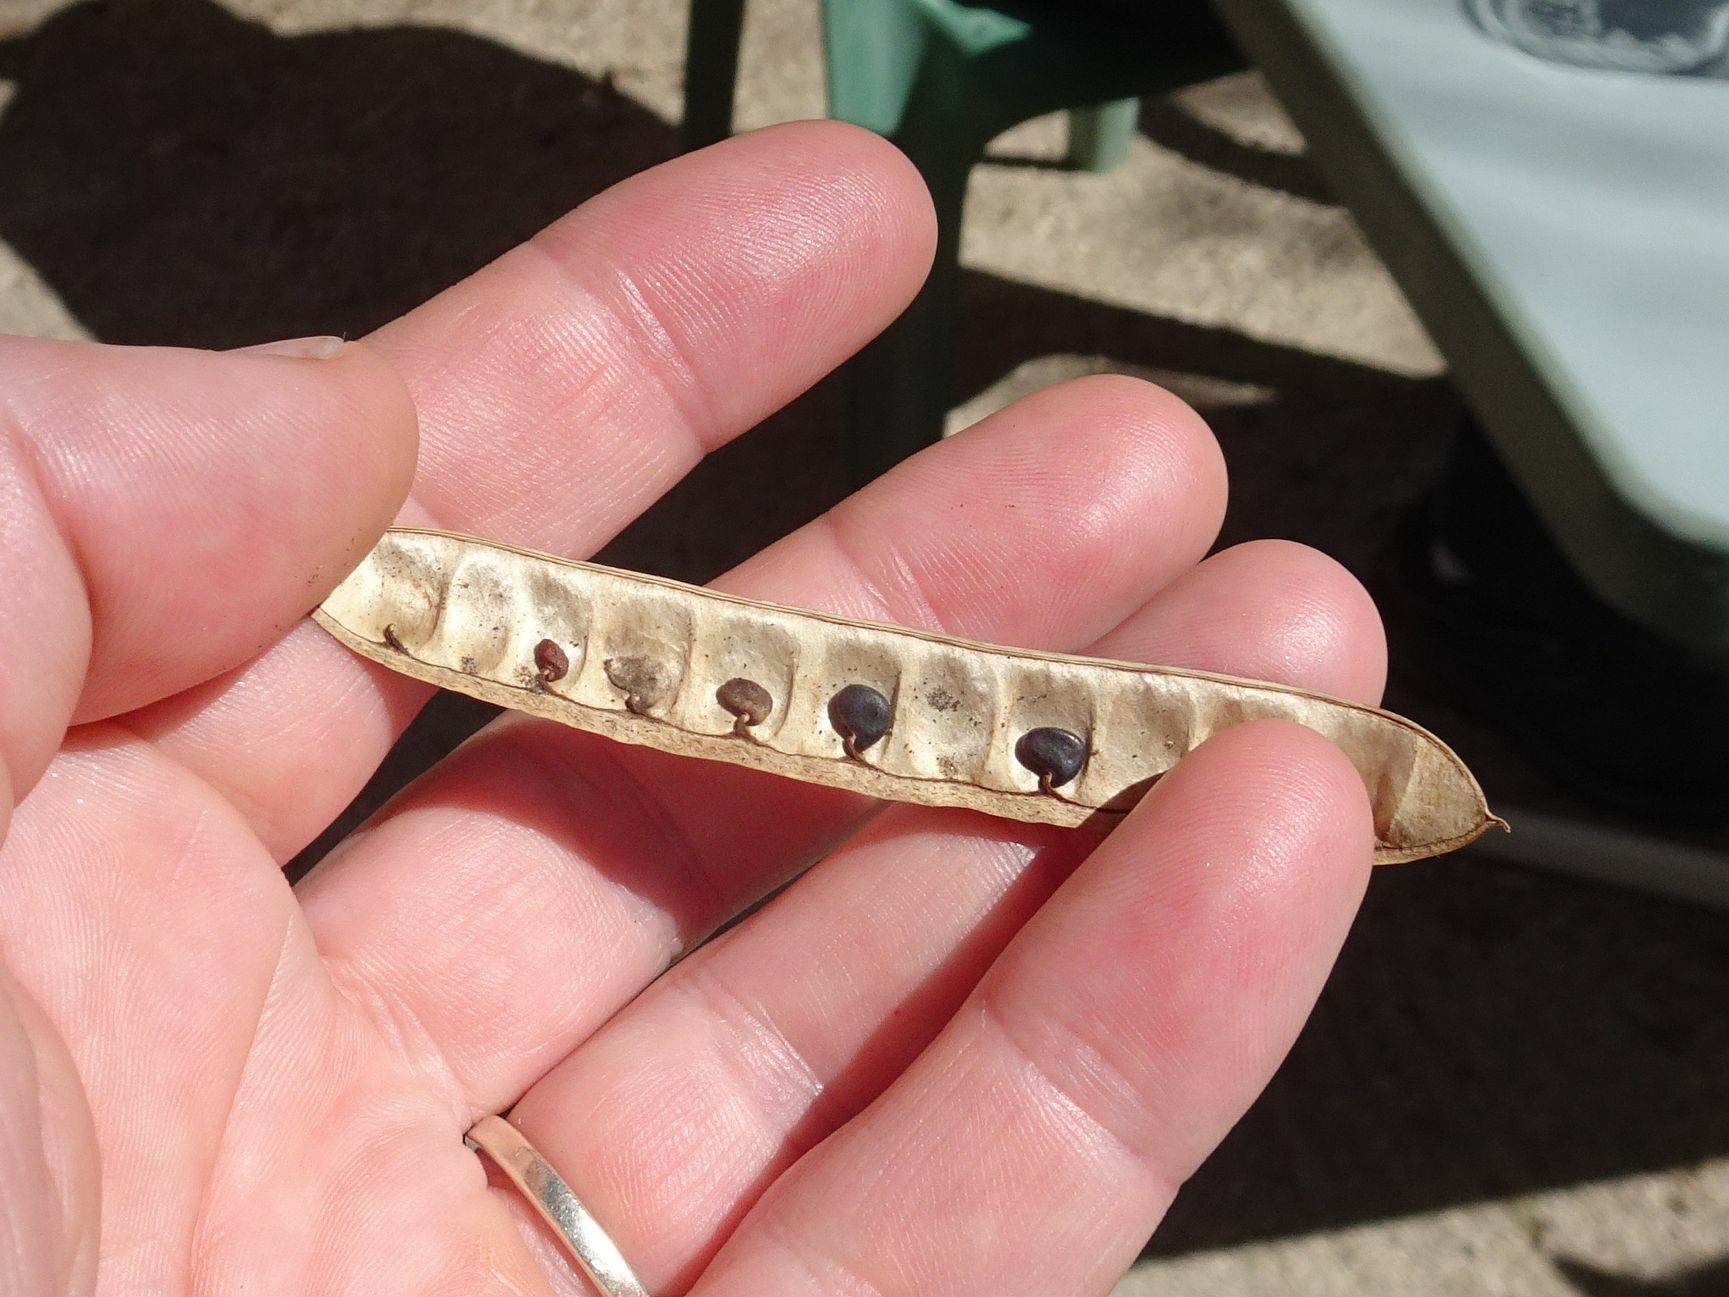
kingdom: Plantae
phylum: Tracheophyta
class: Magnoliopsida
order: Fabales
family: Fabaceae
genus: Robinia
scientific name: Robinia pseudoacacia
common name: Black locust
